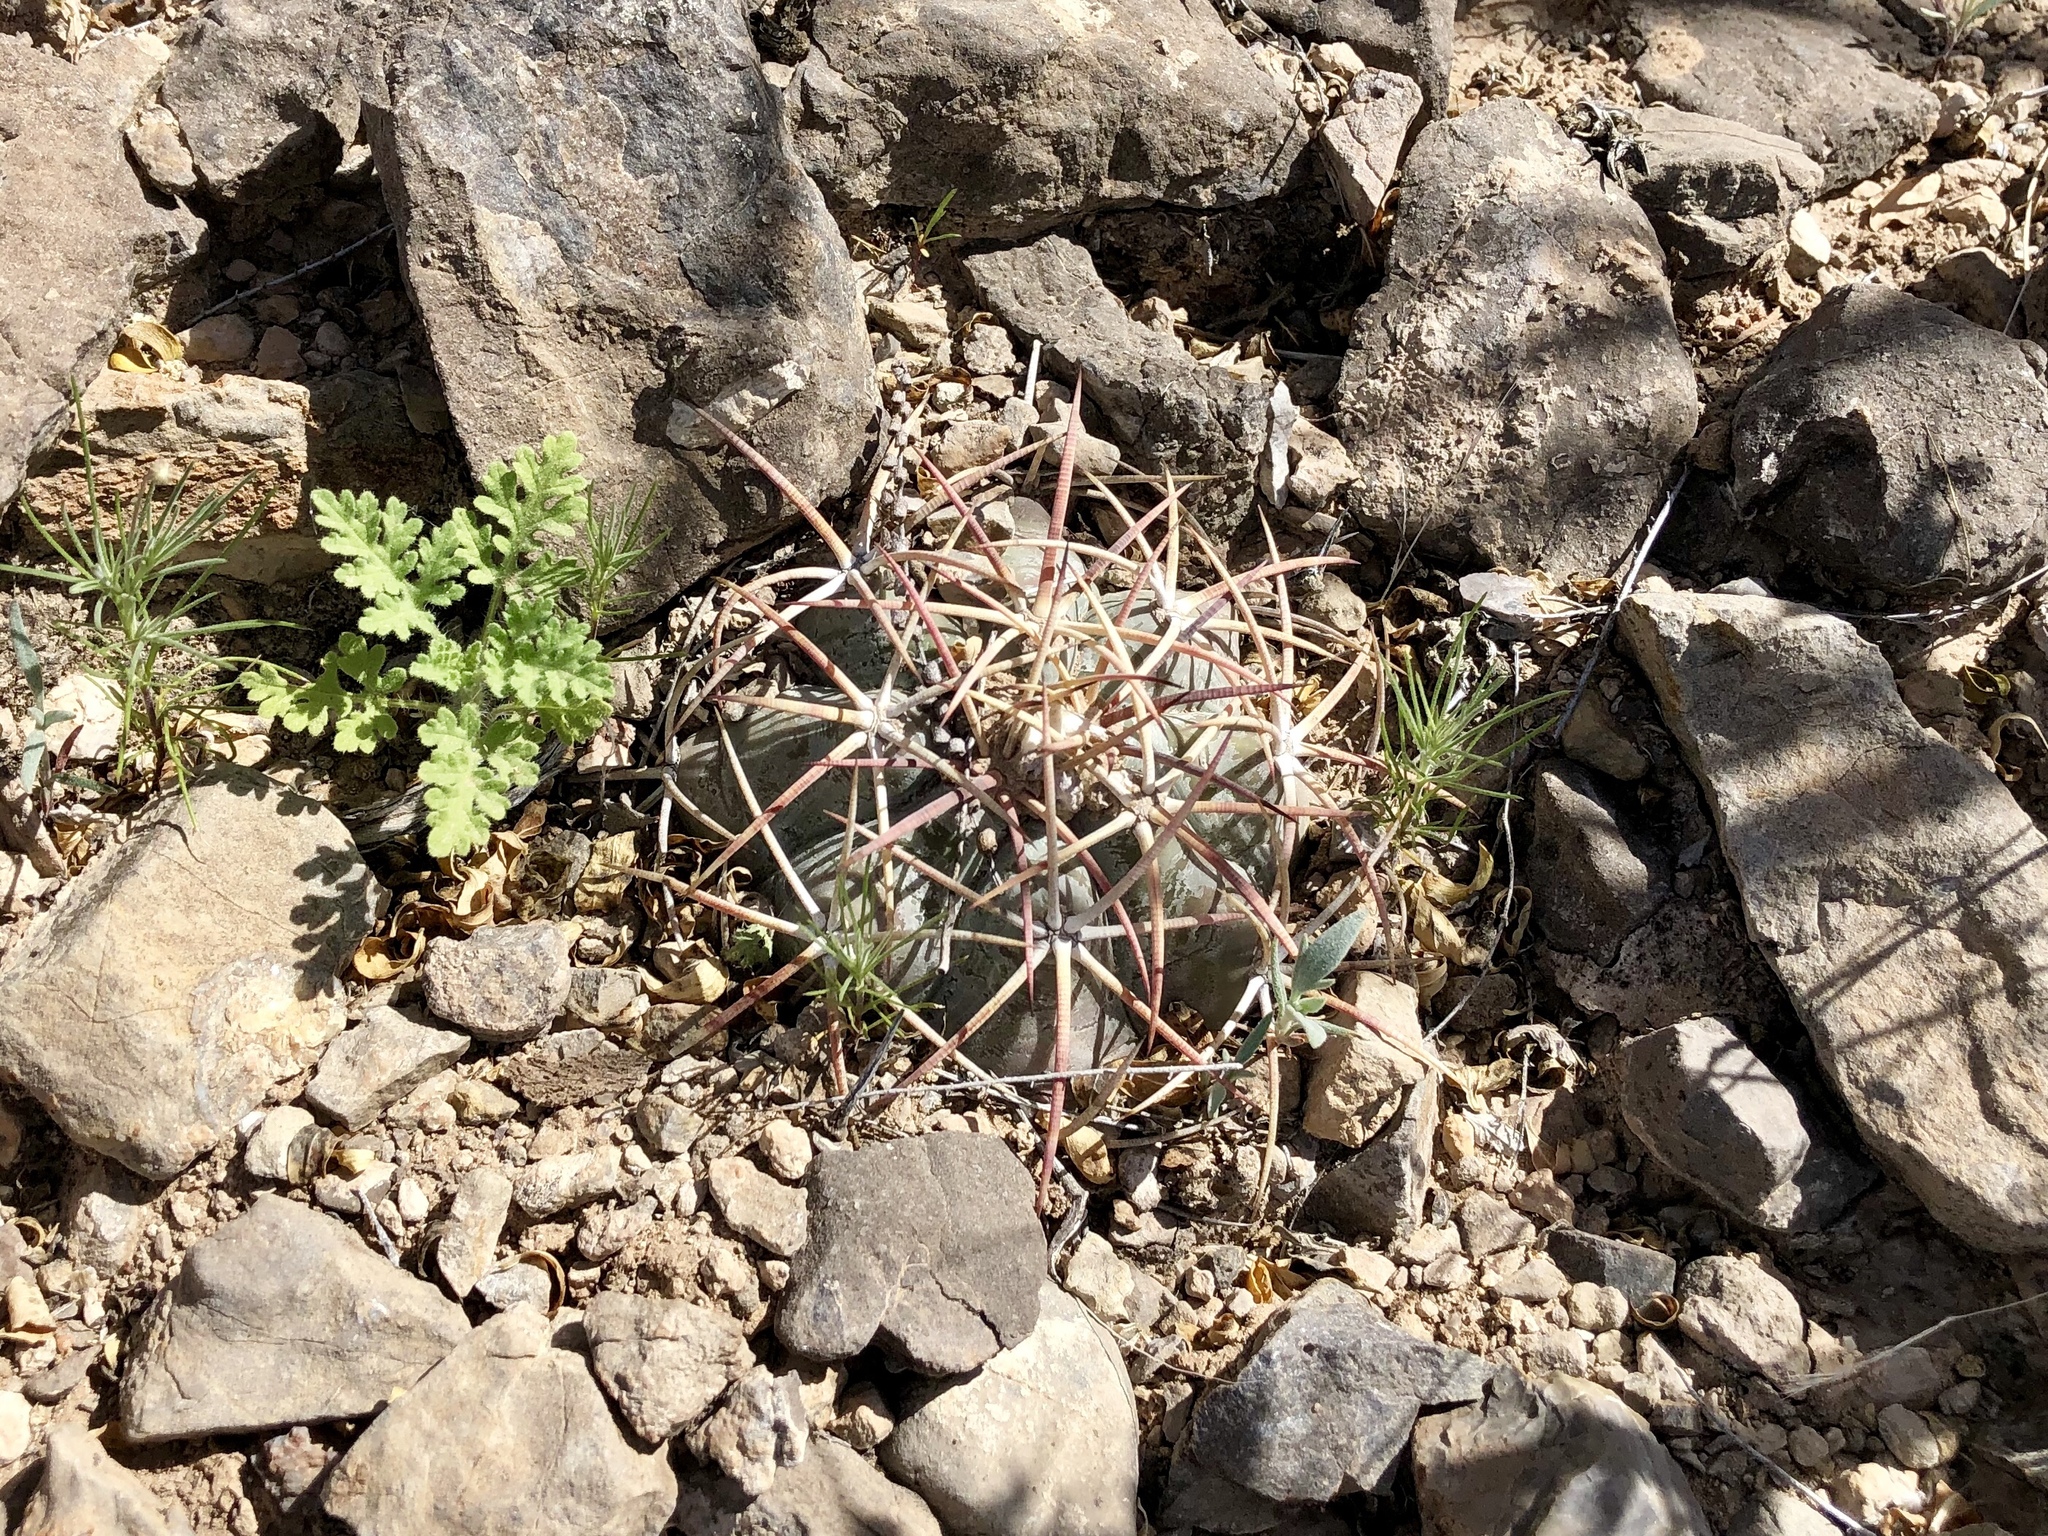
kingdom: Plantae
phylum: Tracheophyta
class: Magnoliopsida
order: Caryophyllales
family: Cactaceae
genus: Echinocactus
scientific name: Echinocactus horizonthalonius
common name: Devilshead
